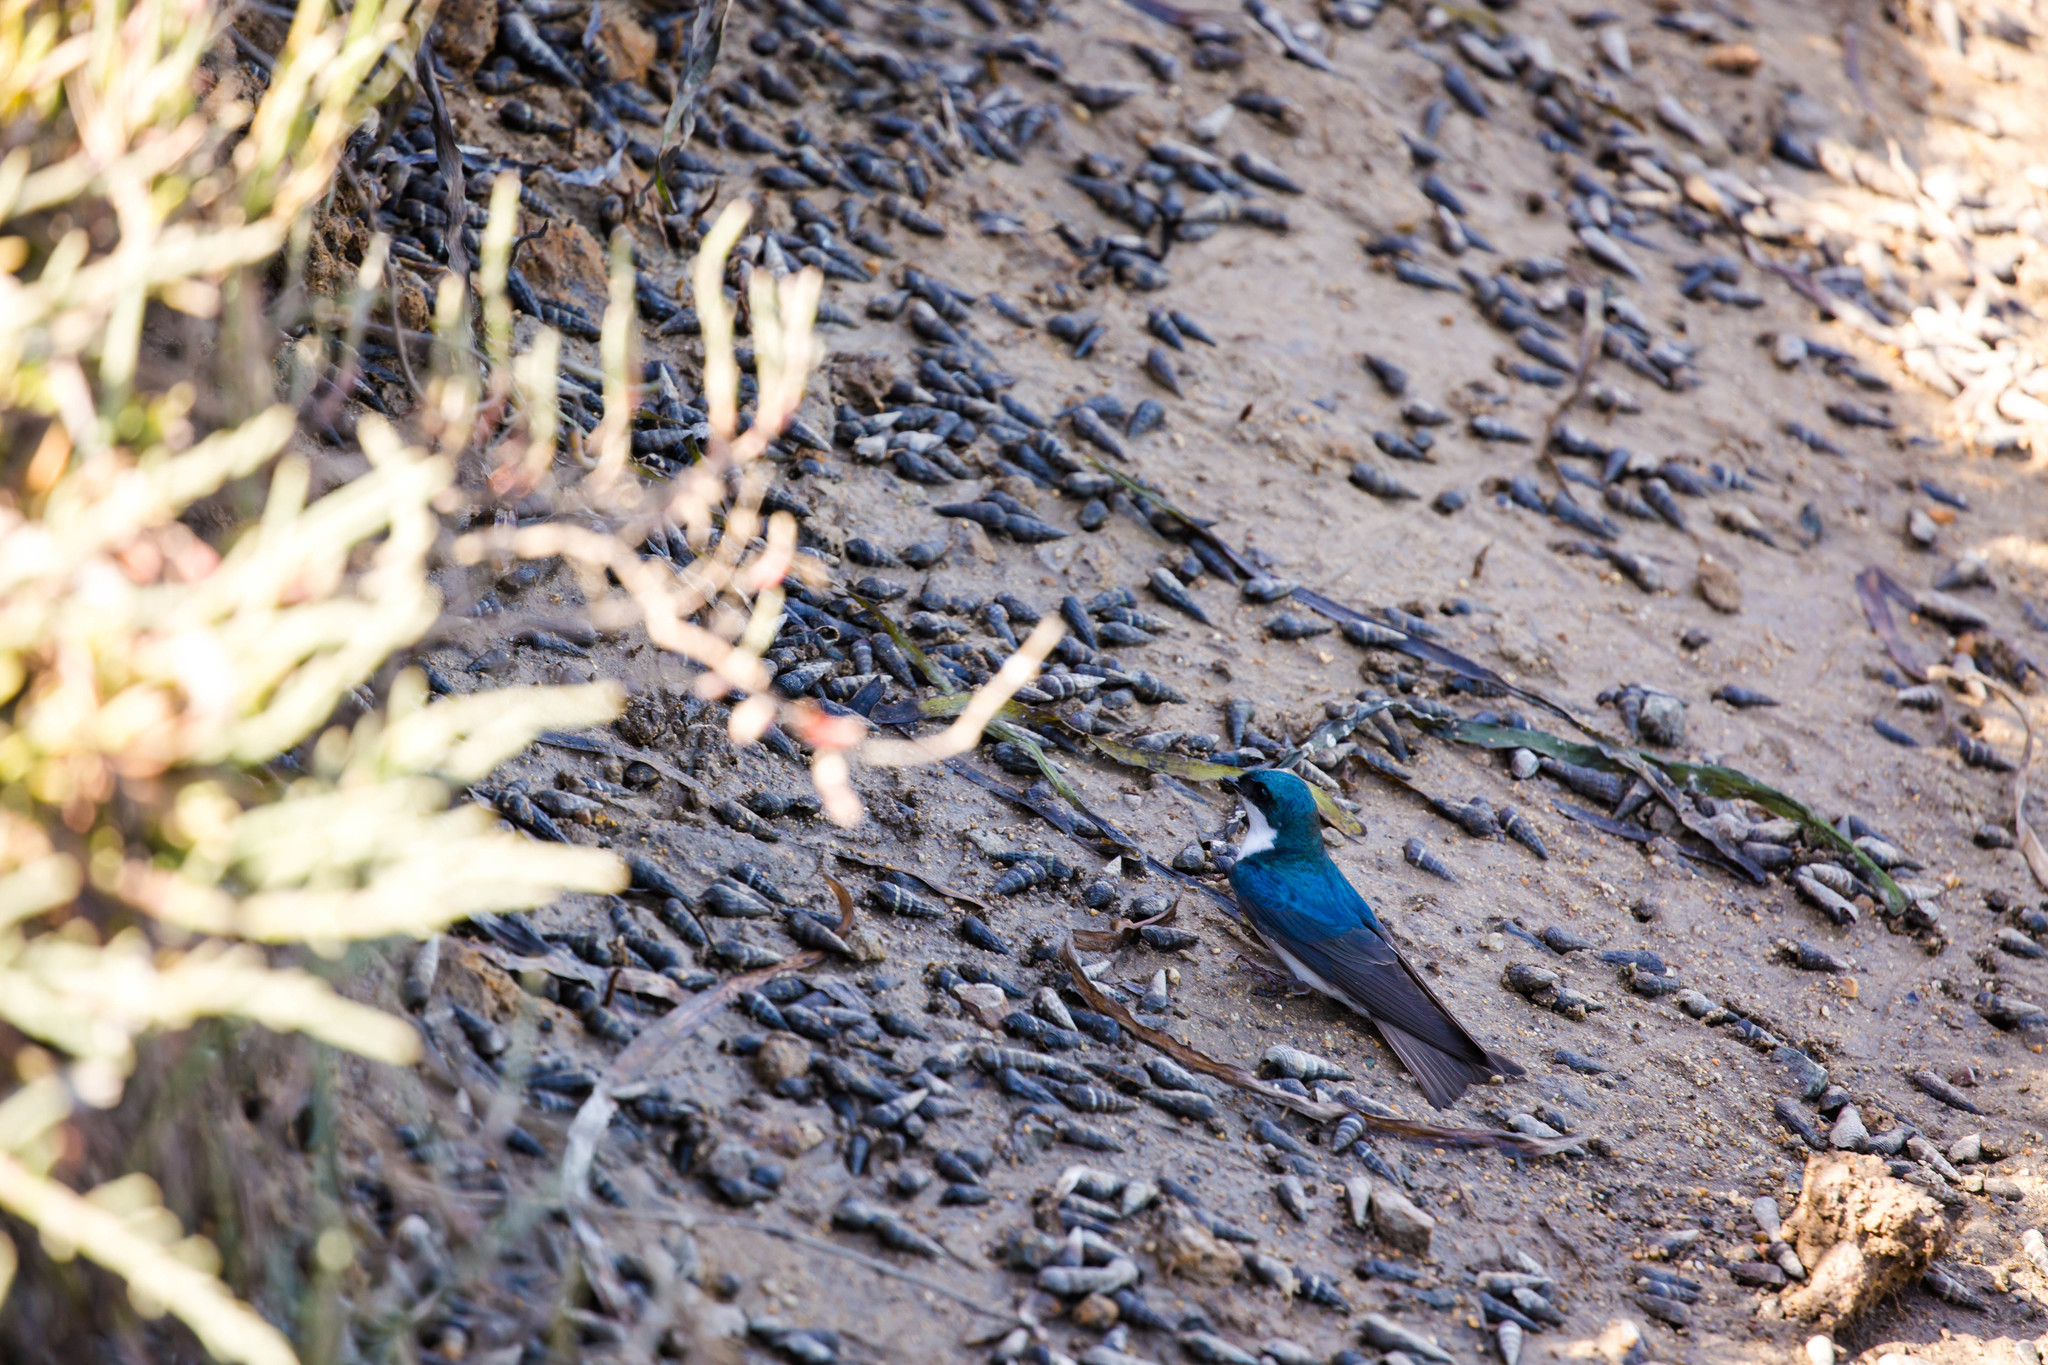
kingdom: Animalia
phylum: Chordata
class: Aves
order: Passeriformes
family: Hirundinidae
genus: Tachycineta
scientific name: Tachycineta bicolor
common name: Tree swallow
